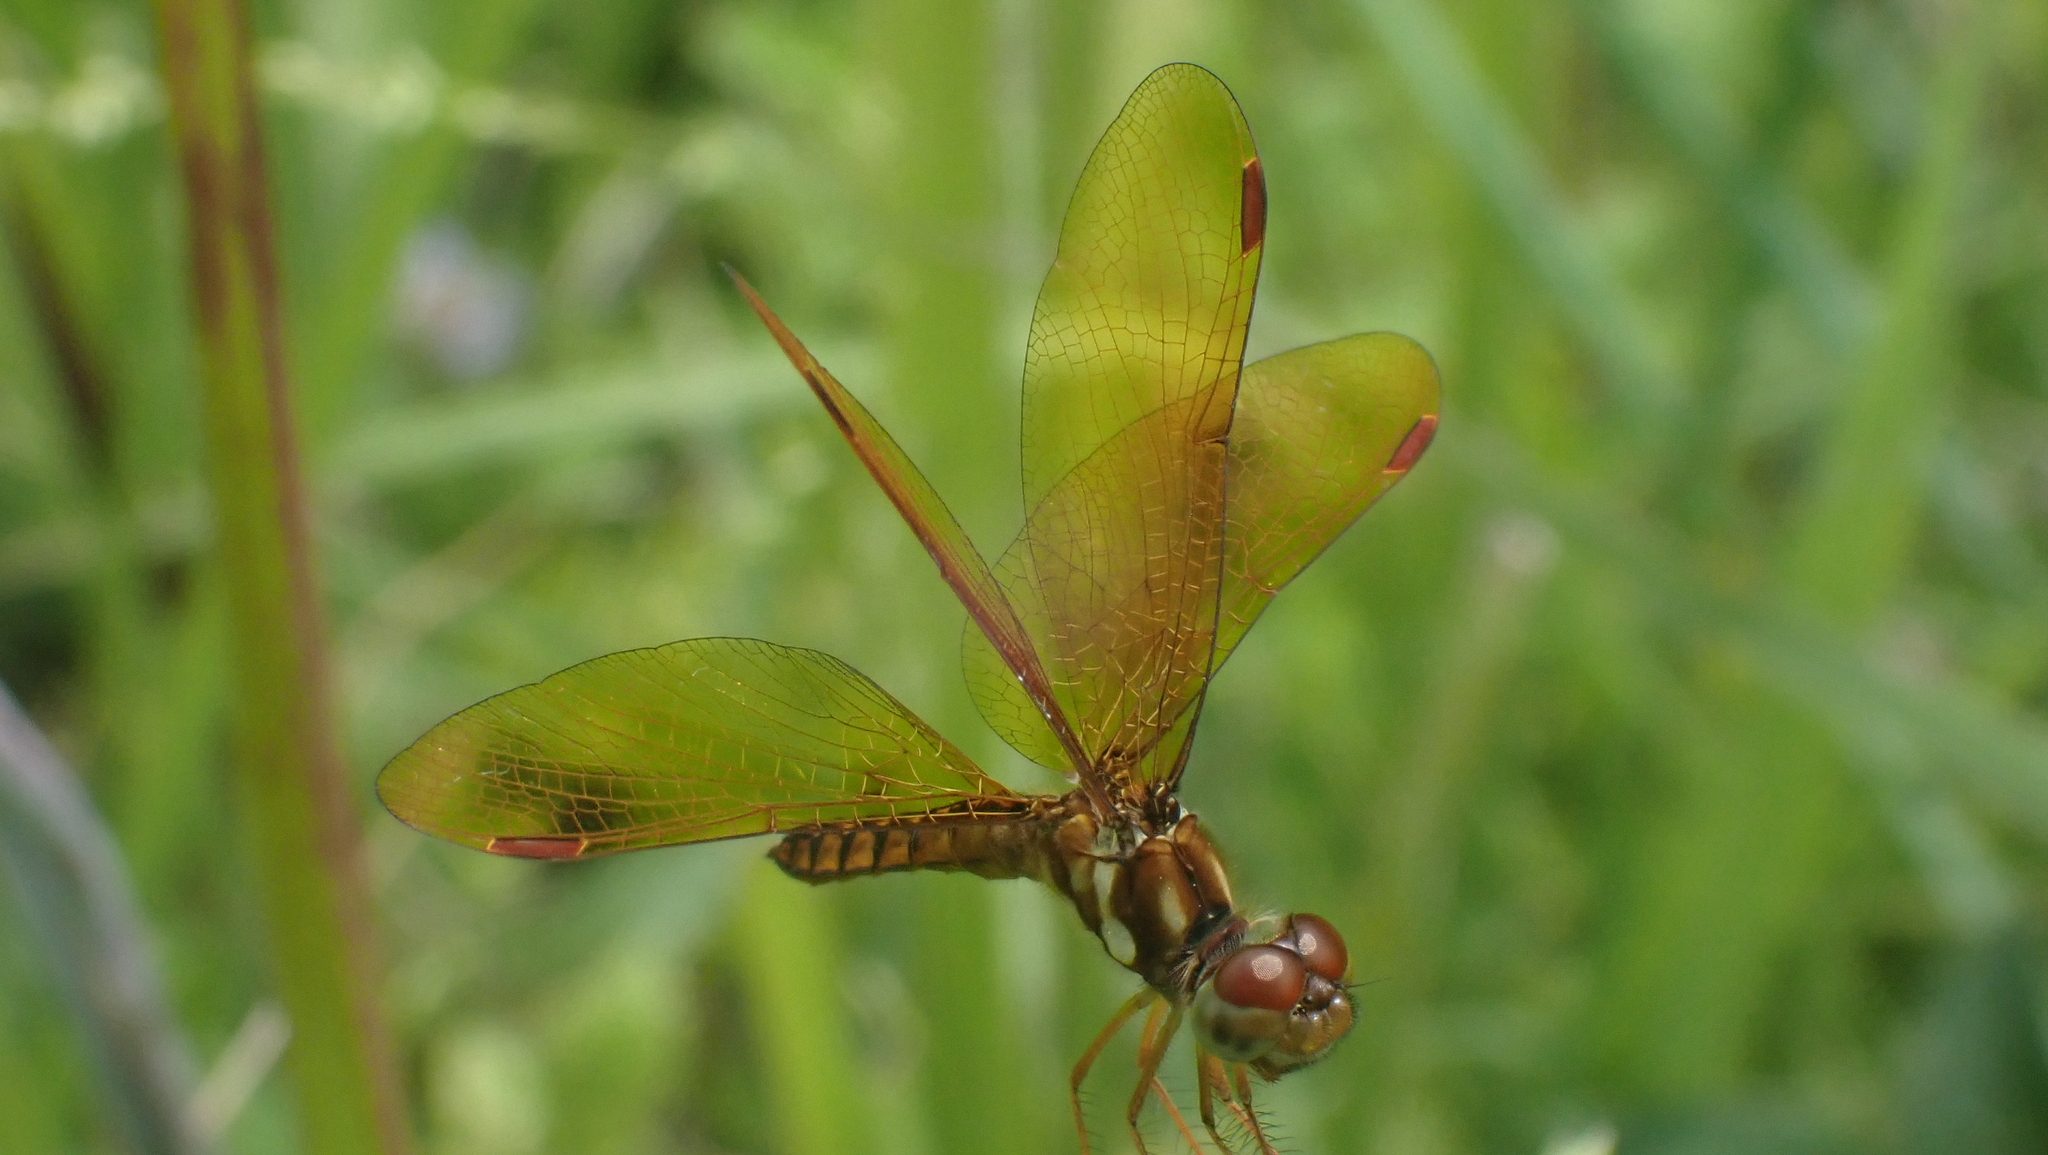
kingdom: Animalia
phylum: Arthropoda
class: Insecta
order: Odonata
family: Libellulidae
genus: Perithemis
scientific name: Perithemis tenera
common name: Eastern amberwing
